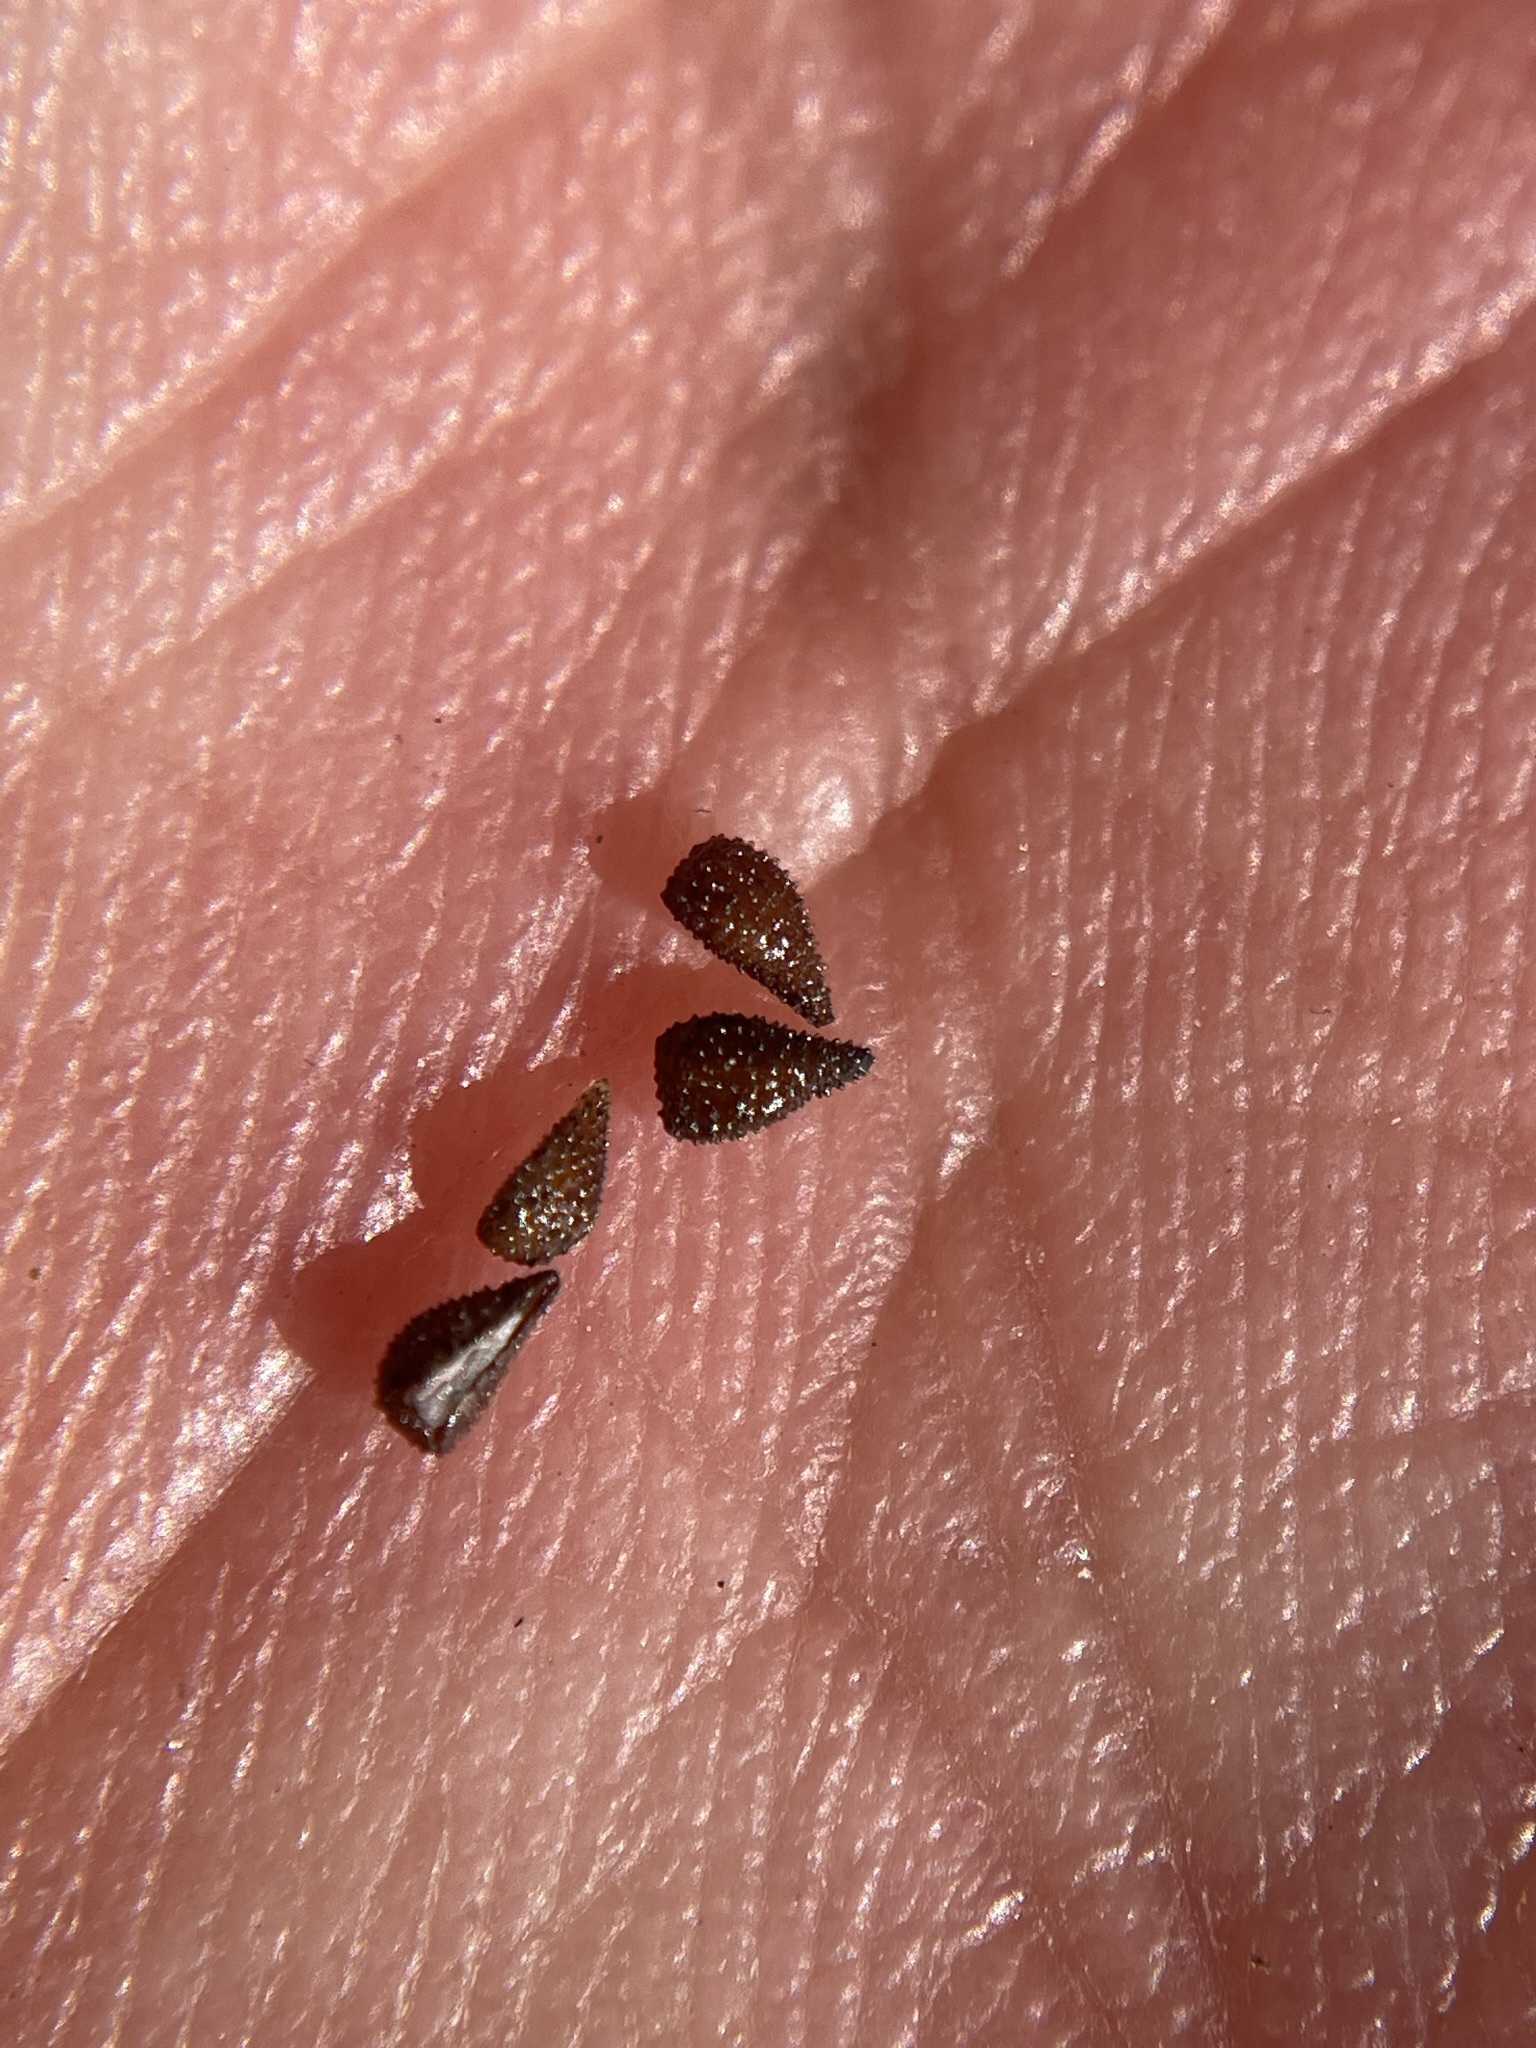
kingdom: Plantae
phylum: Tracheophyta
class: Magnoliopsida
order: Boraginales
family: Boraginaceae
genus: Cryptantha
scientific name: Cryptantha barbigera
